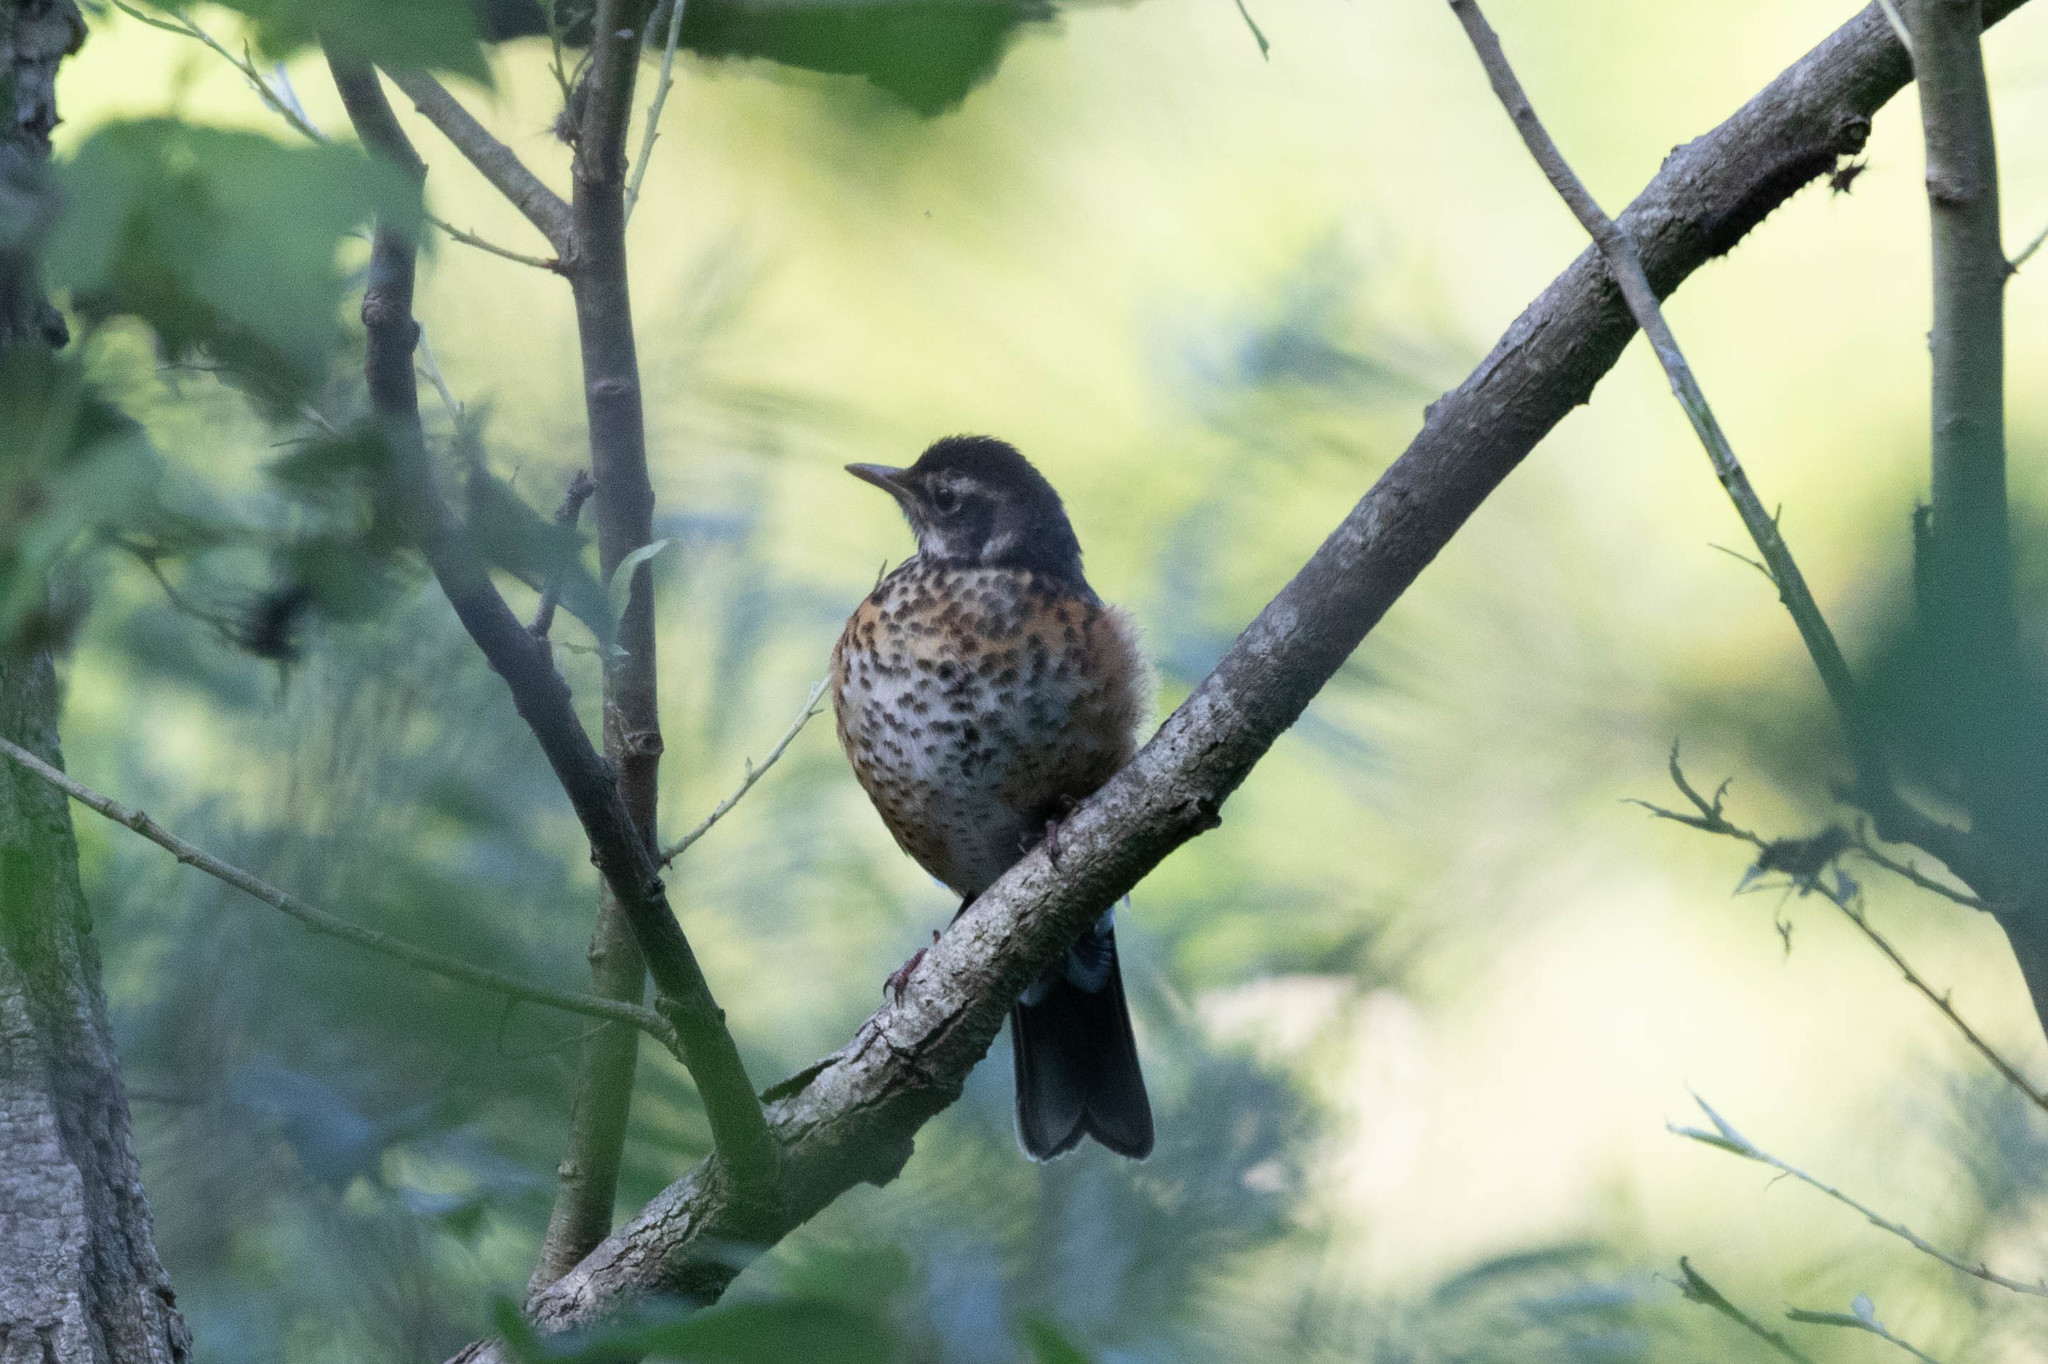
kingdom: Animalia
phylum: Chordata
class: Aves
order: Passeriformes
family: Turdidae
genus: Turdus
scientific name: Turdus migratorius
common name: American robin
